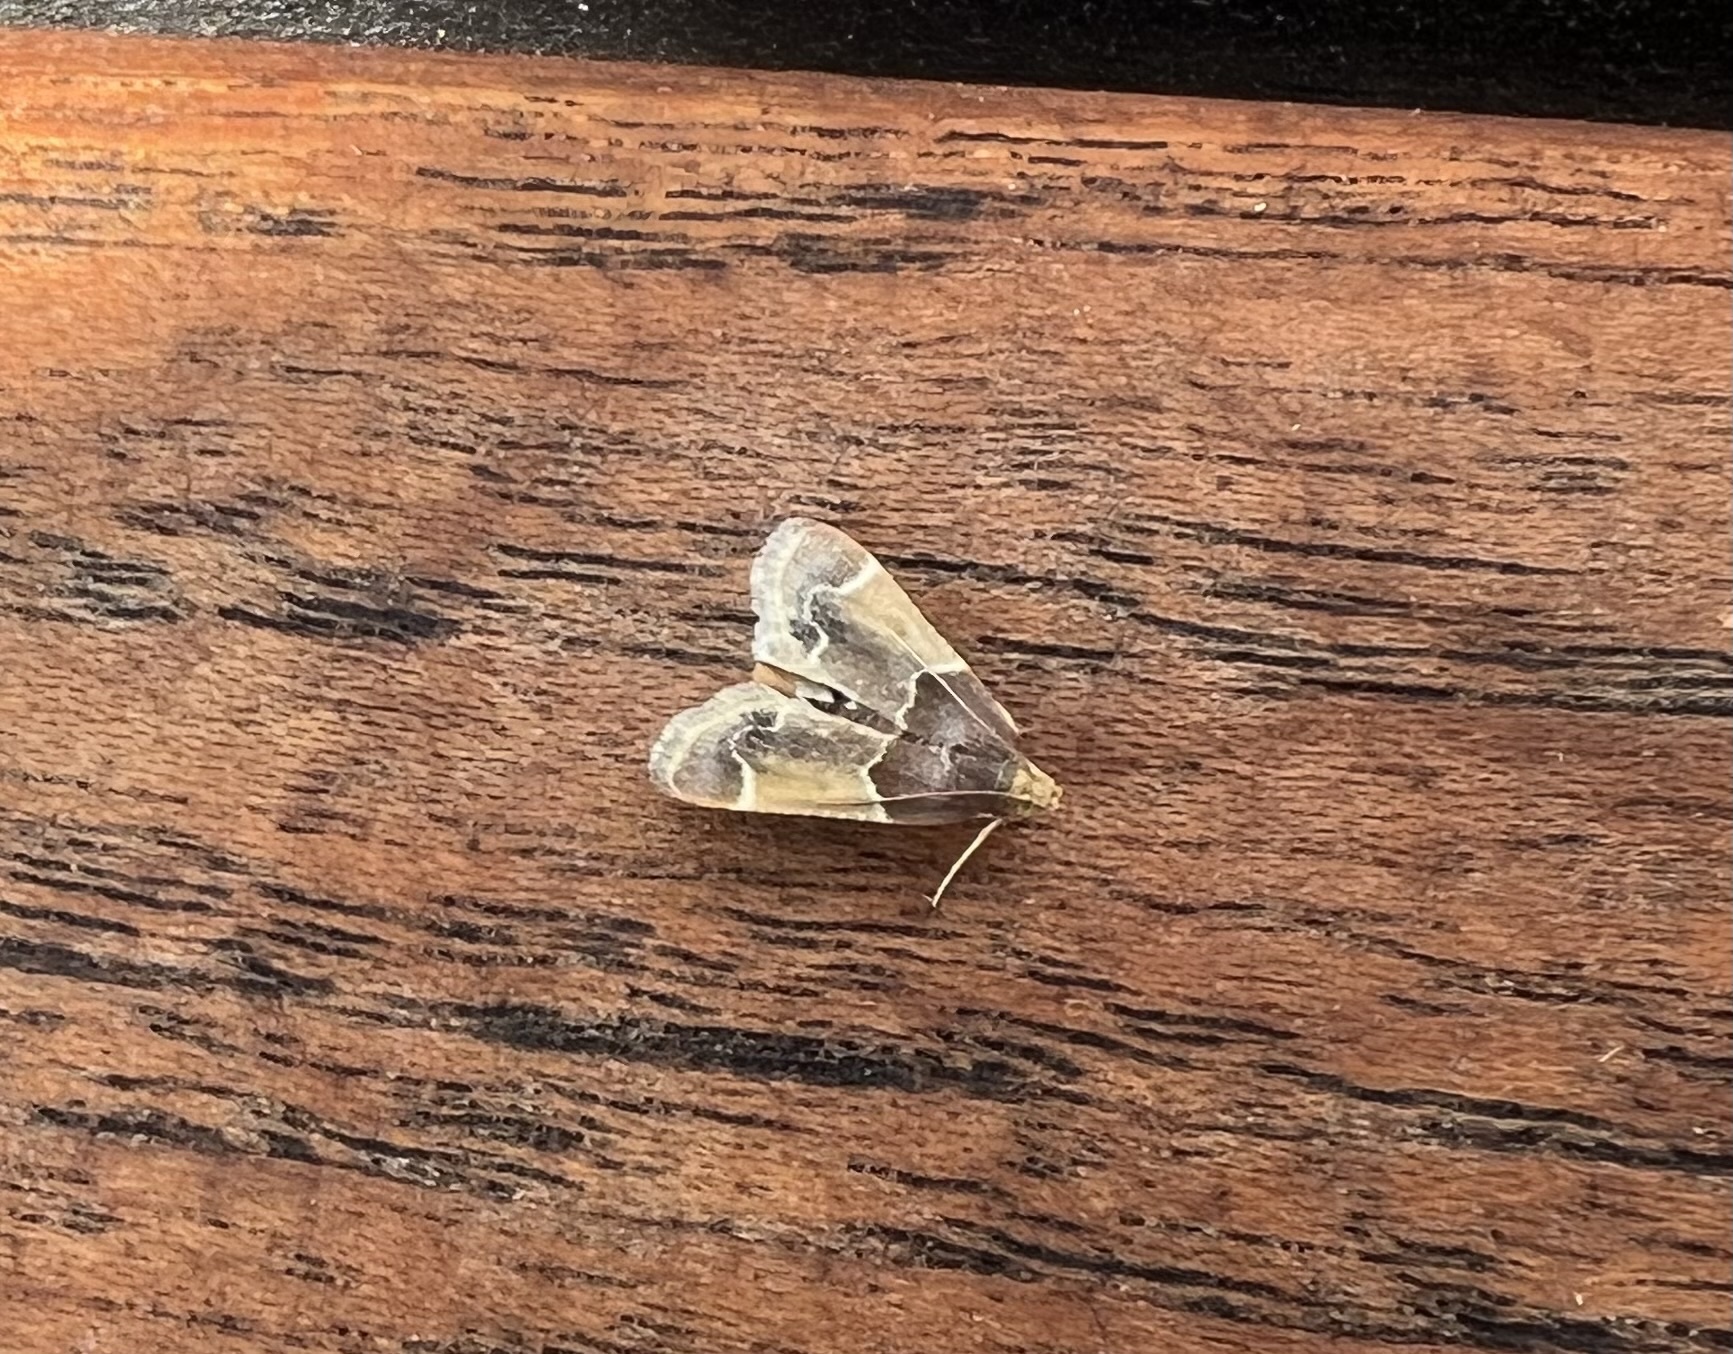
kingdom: Animalia
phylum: Arthropoda
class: Insecta
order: Lepidoptera
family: Pyralidae
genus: Pyralis
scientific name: Pyralis farinalis
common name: Meal moth
